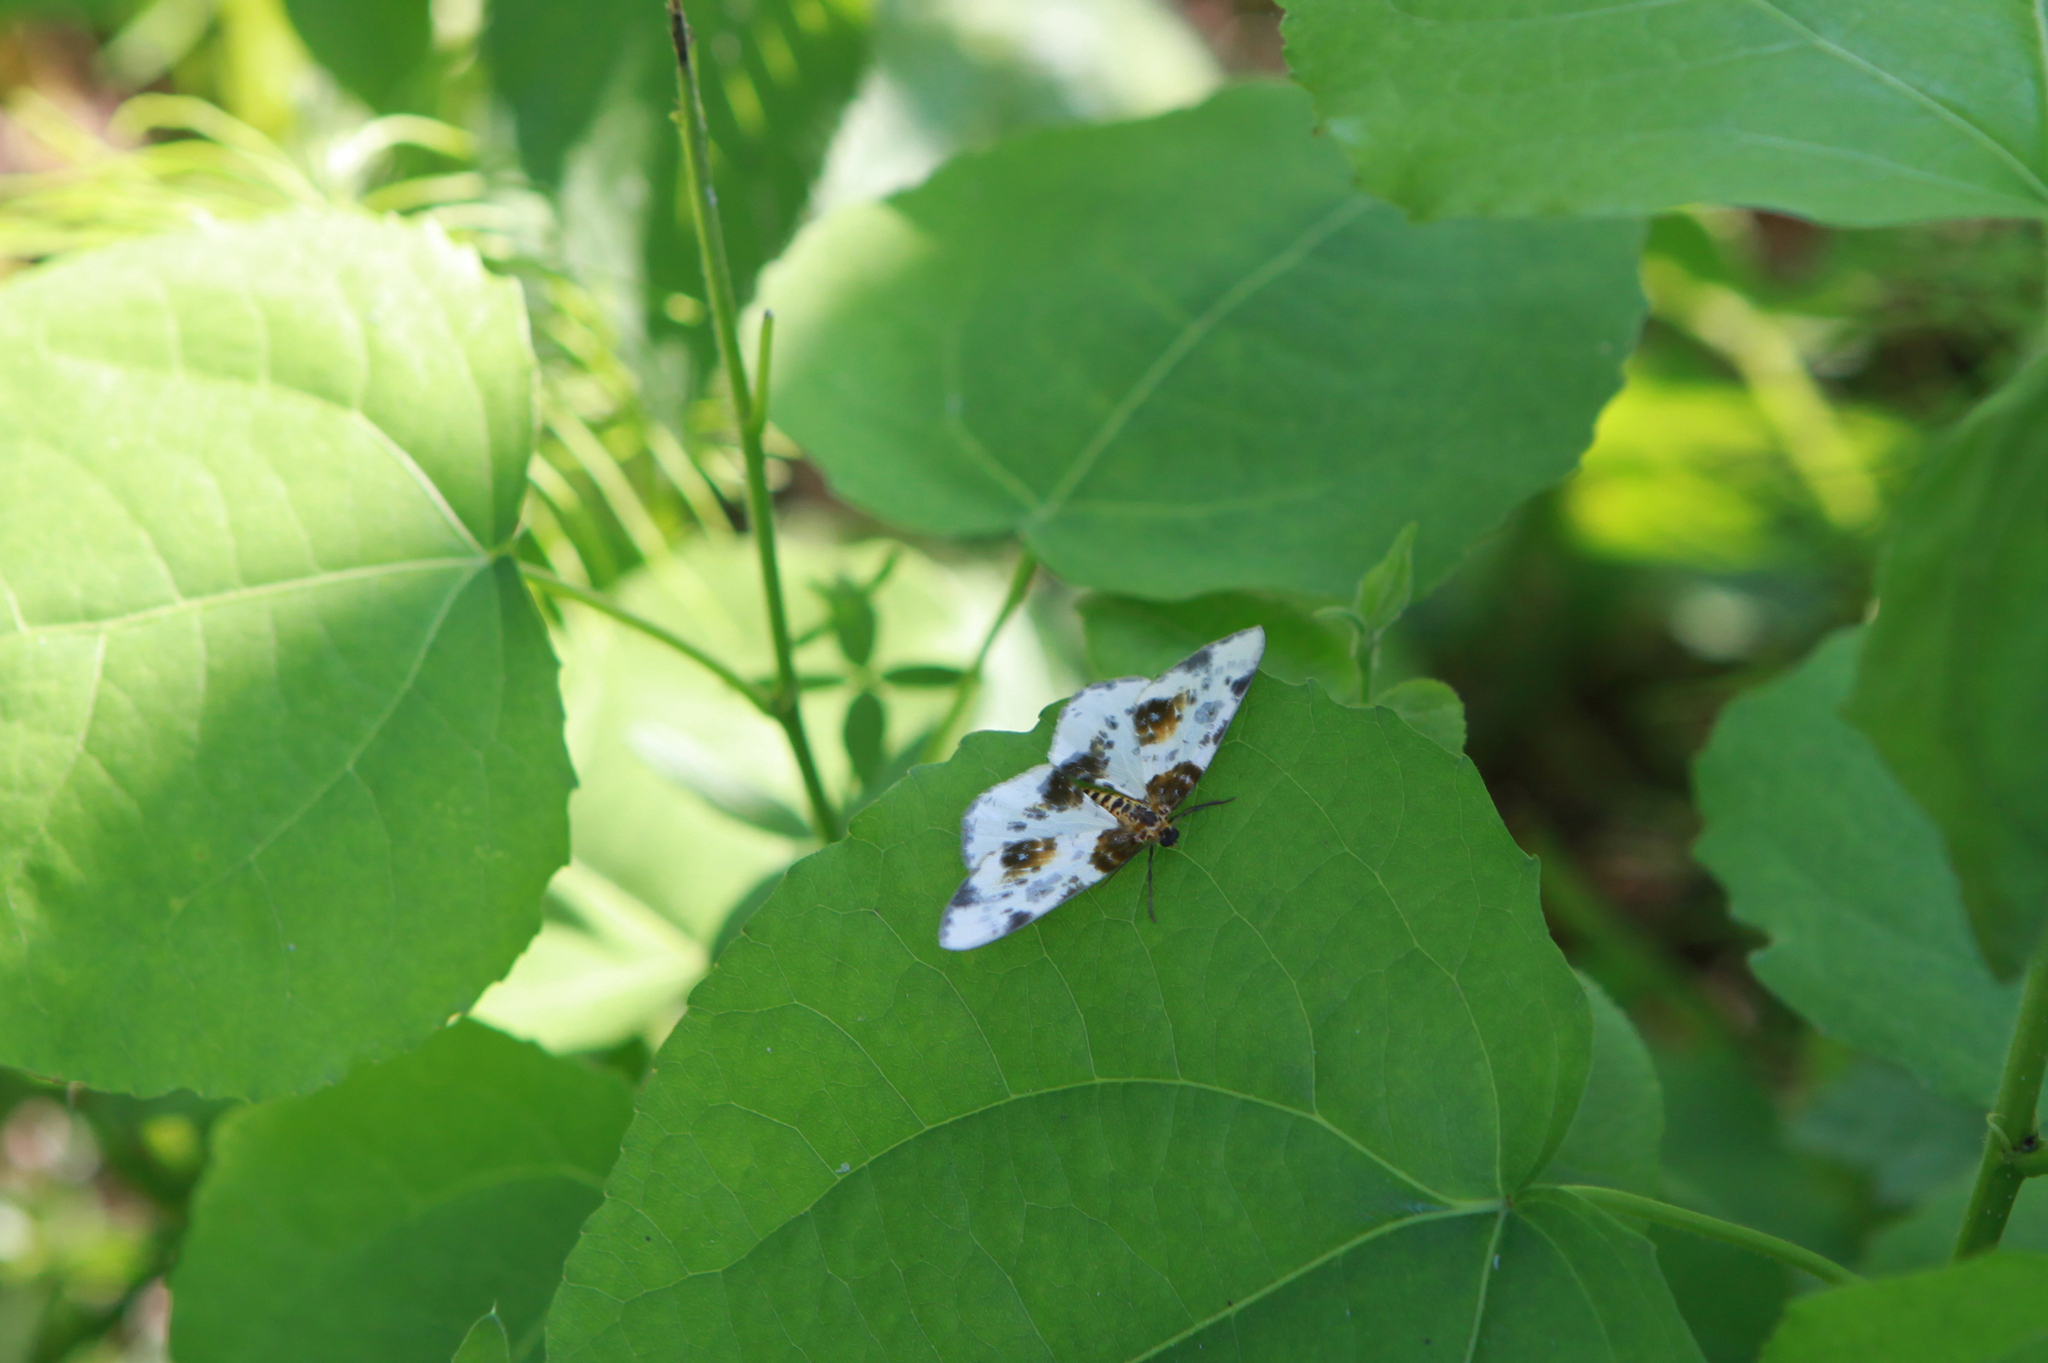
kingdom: Animalia
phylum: Arthropoda
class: Insecta
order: Lepidoptera
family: Geometridae
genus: Abraxas
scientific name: Abraxas sylvata
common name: Clouded magpie
